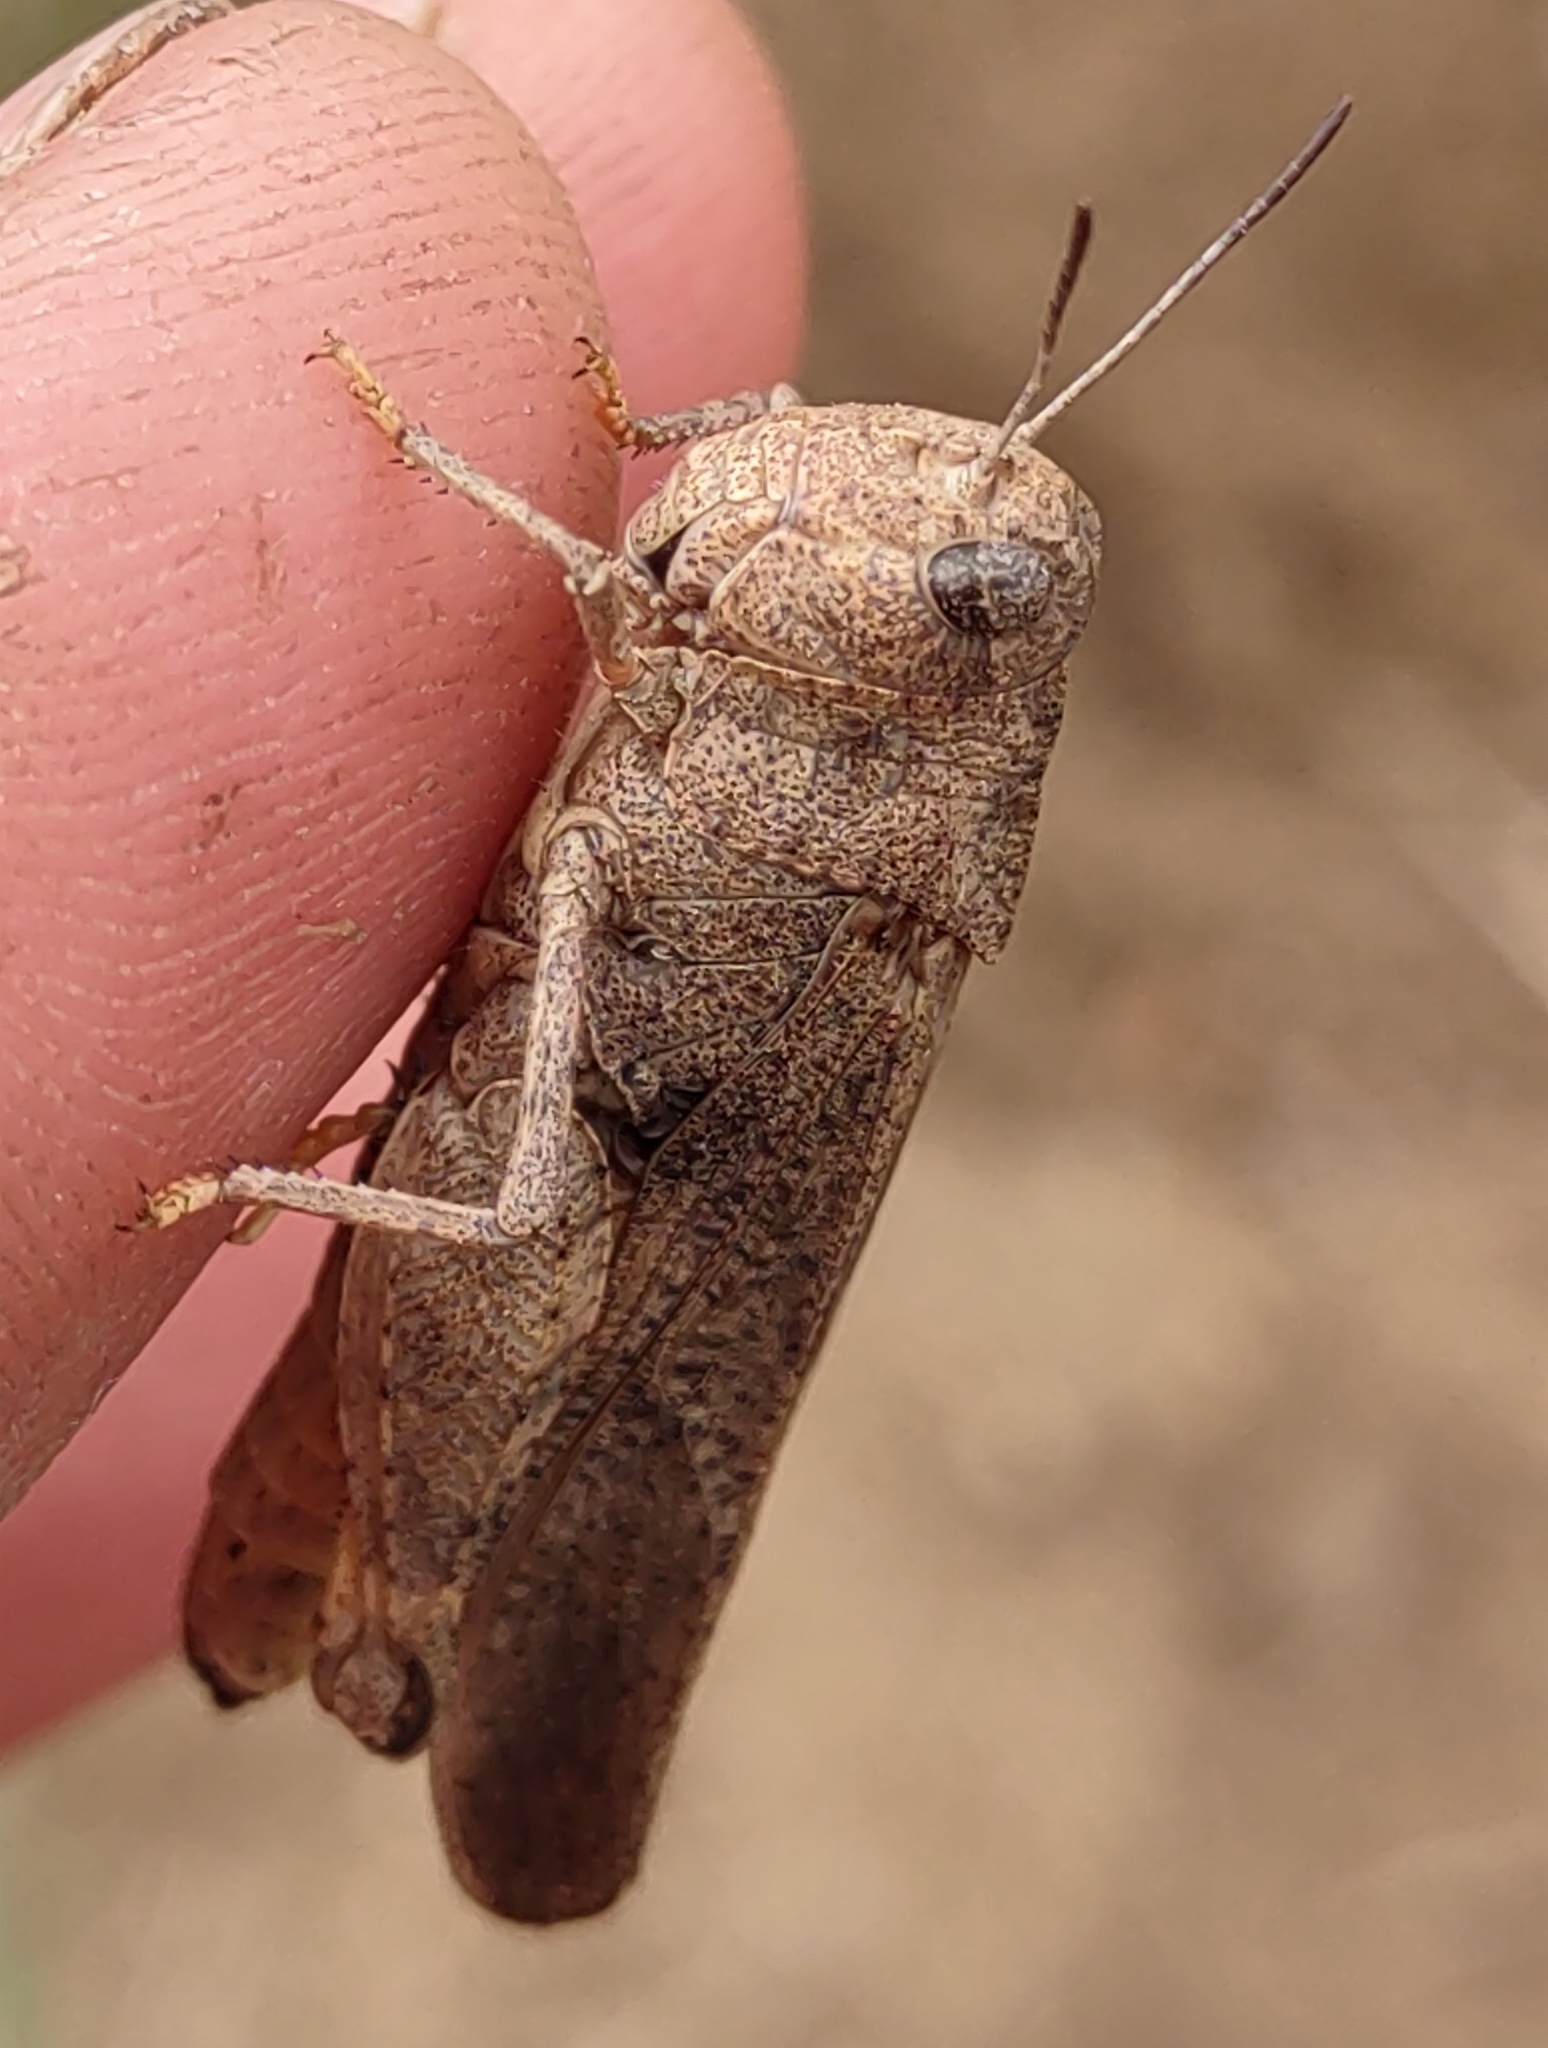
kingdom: Animalia
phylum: Arthropoda
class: Insecta
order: Orthoptera
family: Acrididae
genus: Arphia
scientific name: Arphia conspersa
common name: Speckle-winged rangeland grasshopper
